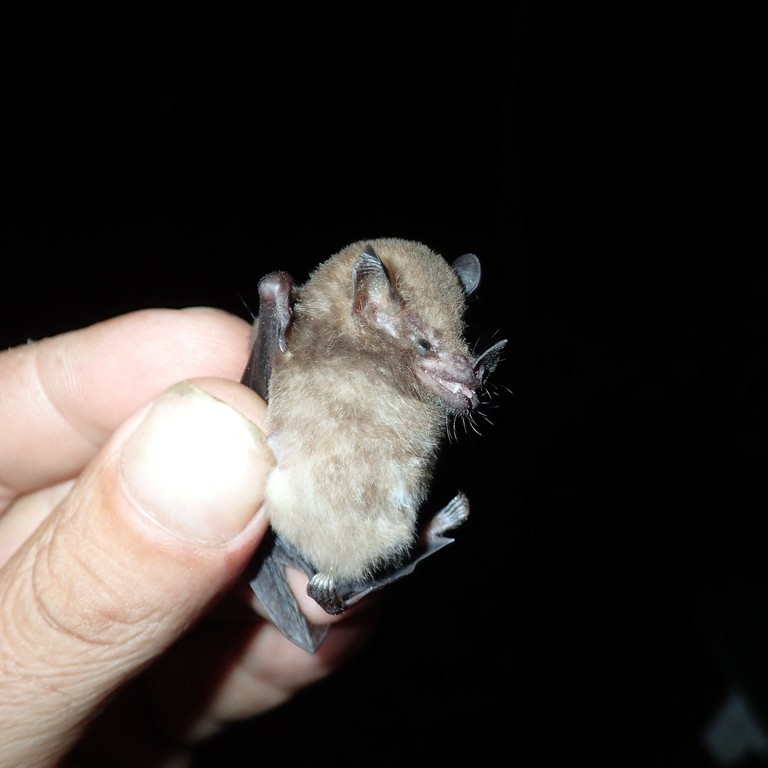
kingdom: Animalia
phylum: Chordata
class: Mammalia
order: Chiroptera
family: Phyllostomidae
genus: Lionycteris
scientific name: Lionycteris spurrelli
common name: Chestnut long-tongued bat
